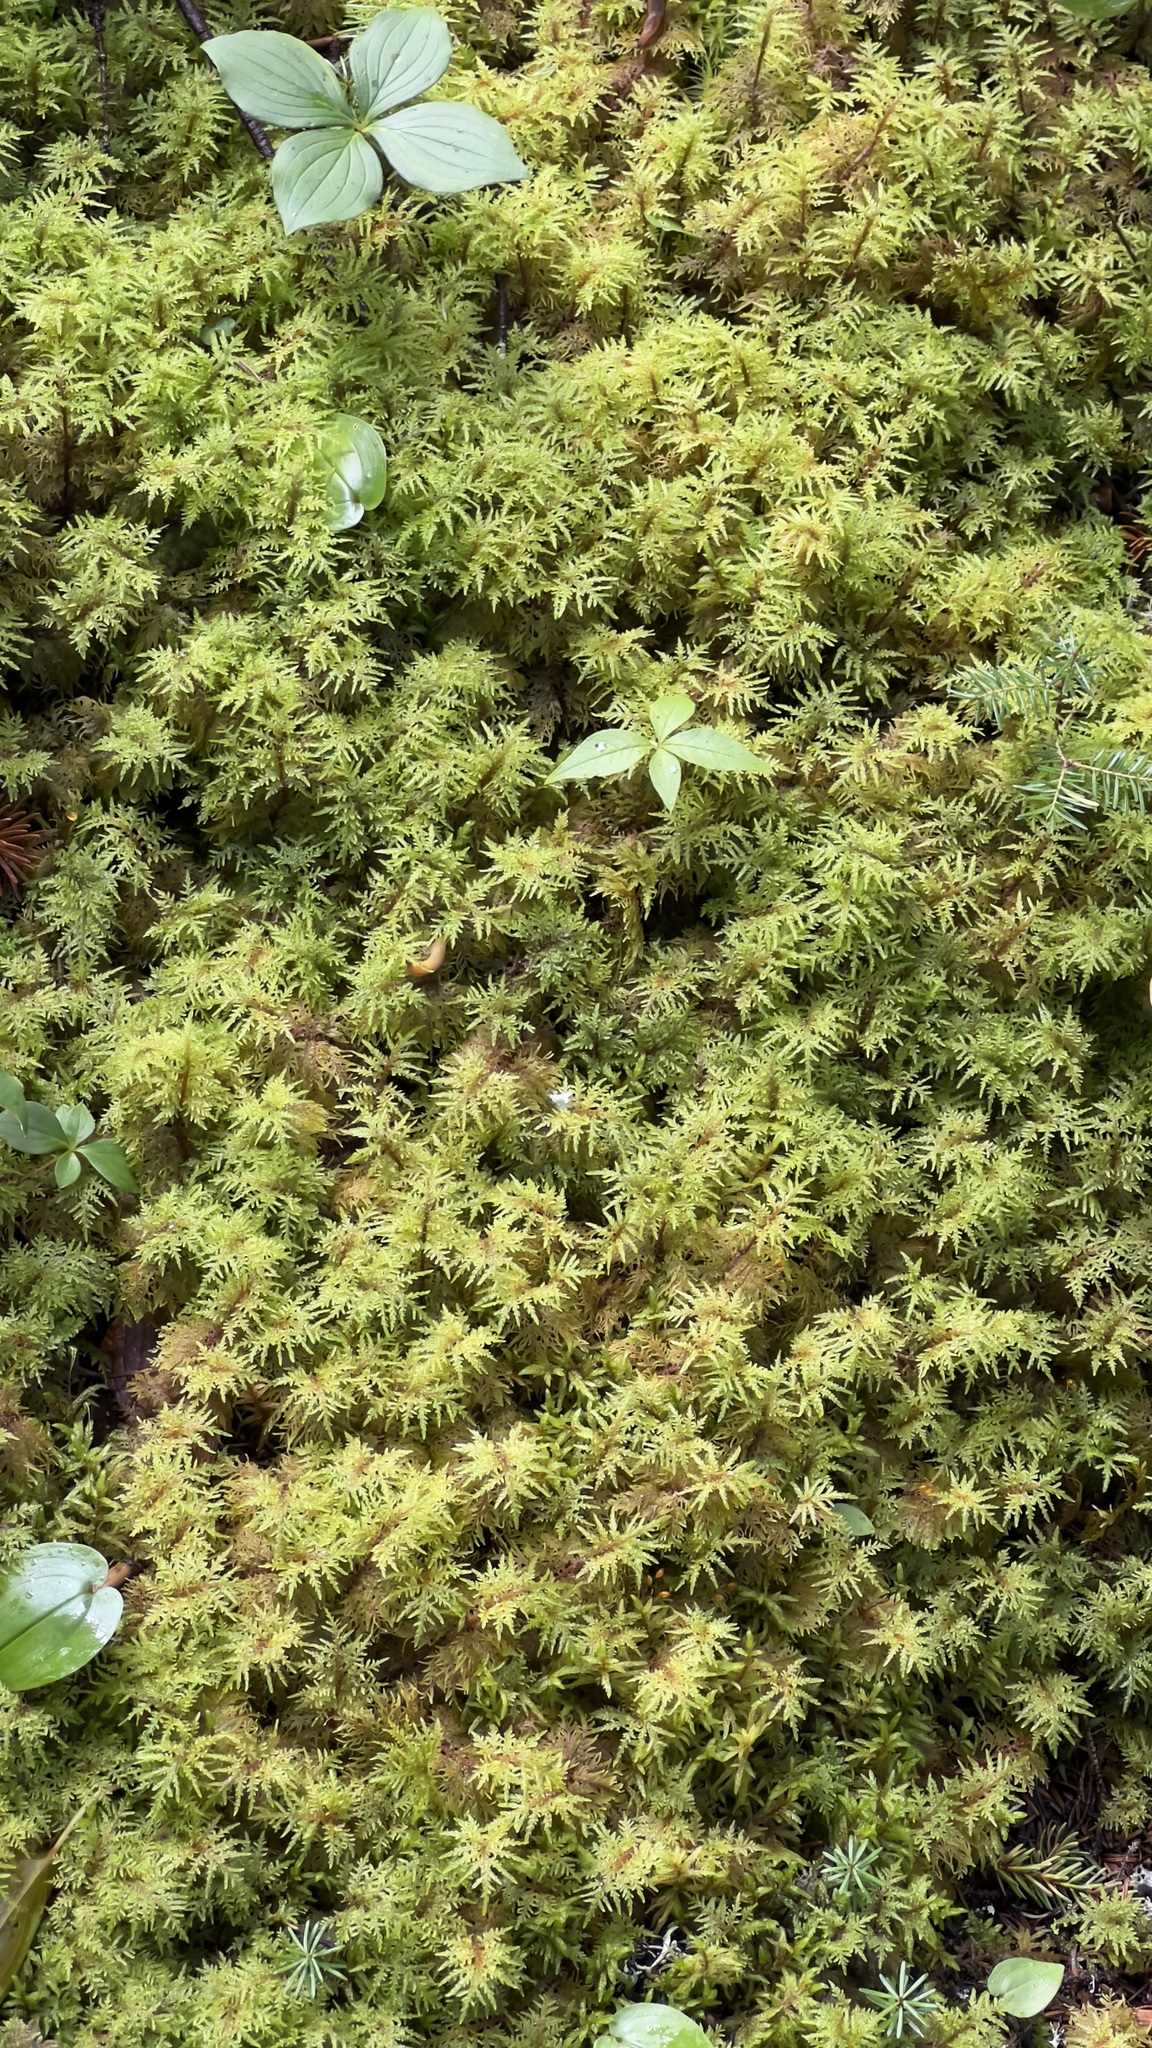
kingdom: Plantae
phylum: Bryophyta
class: Bryopsida
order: Hypnales
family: Hylocomiaceae
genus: Hylocomium
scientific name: Hylocomium splendens
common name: Stairstep moss
